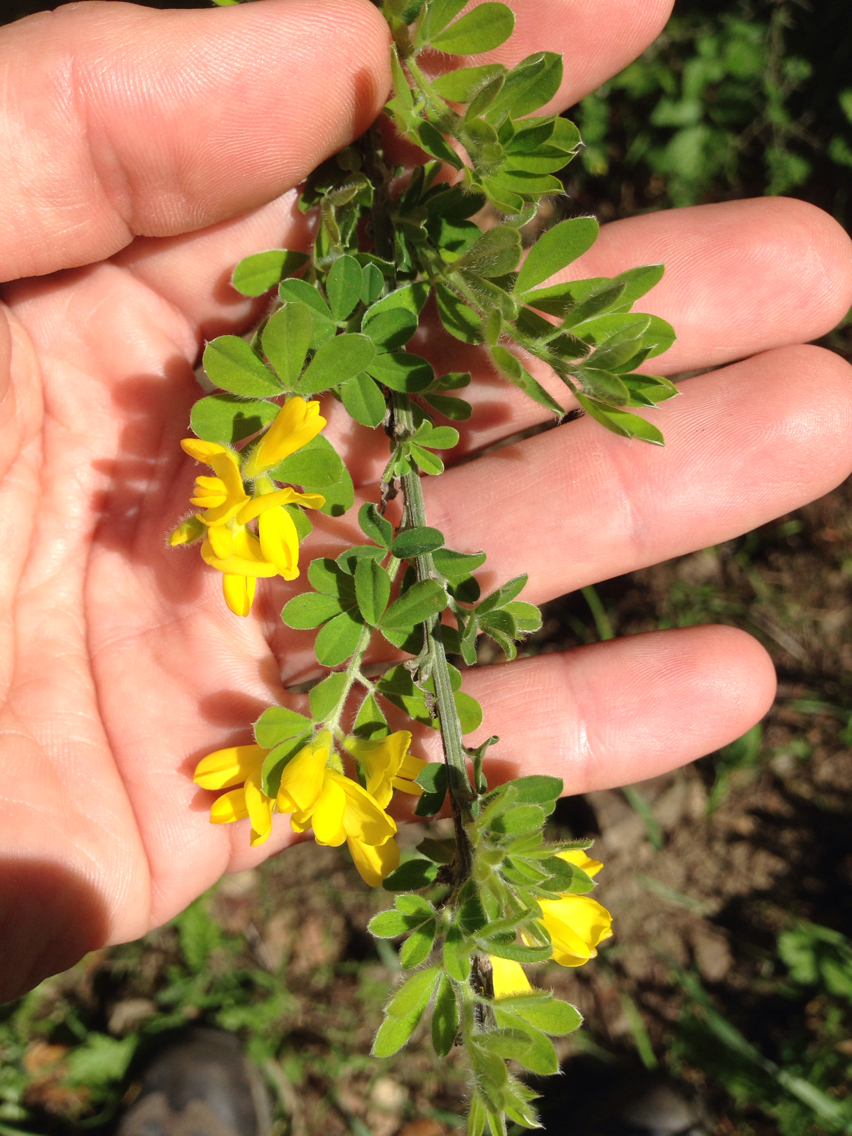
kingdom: Plantae
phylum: Tracheophyta
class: Magnoliopsida
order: Fabales
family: Fabaceae
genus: Genista
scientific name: Genista monspessulana
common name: Montpellier broom
